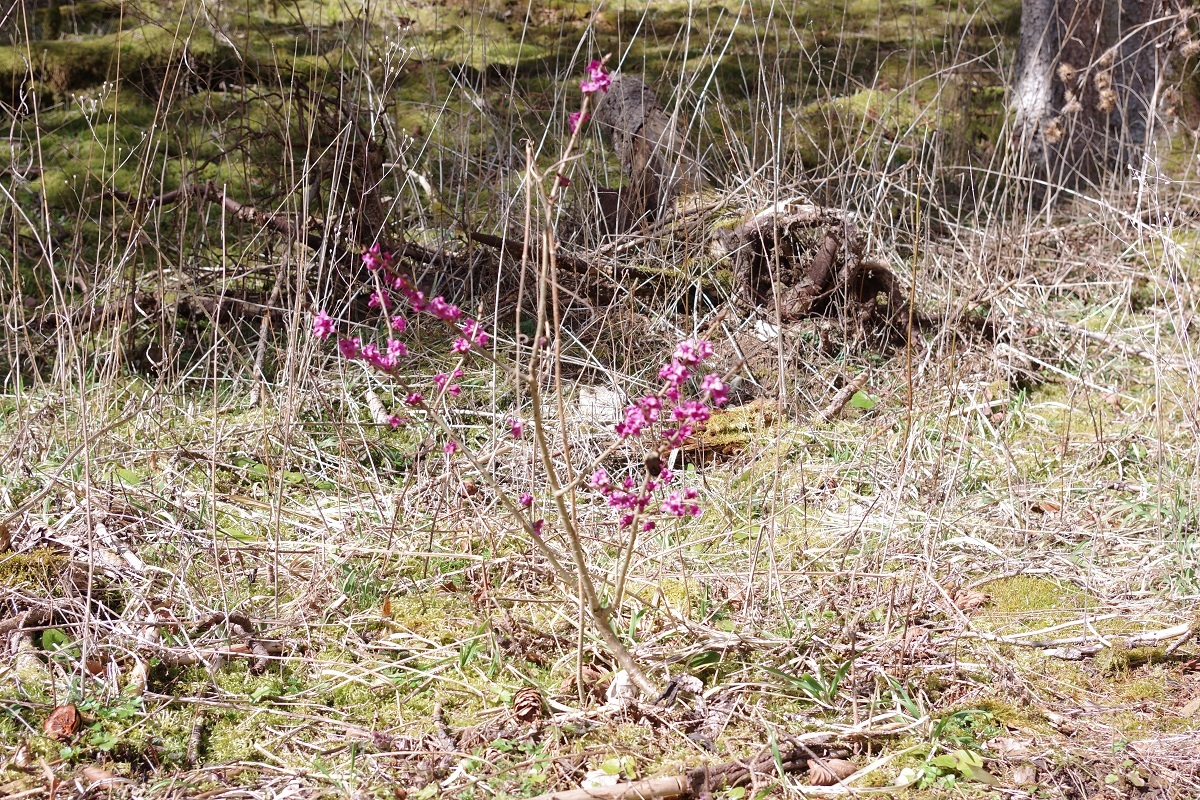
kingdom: Plantae
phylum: Tracheophyta
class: Magnoliopsida
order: Malvales
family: Thymelaeaceae
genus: Daphne
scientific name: Daphne mezereum
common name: Mezereon
